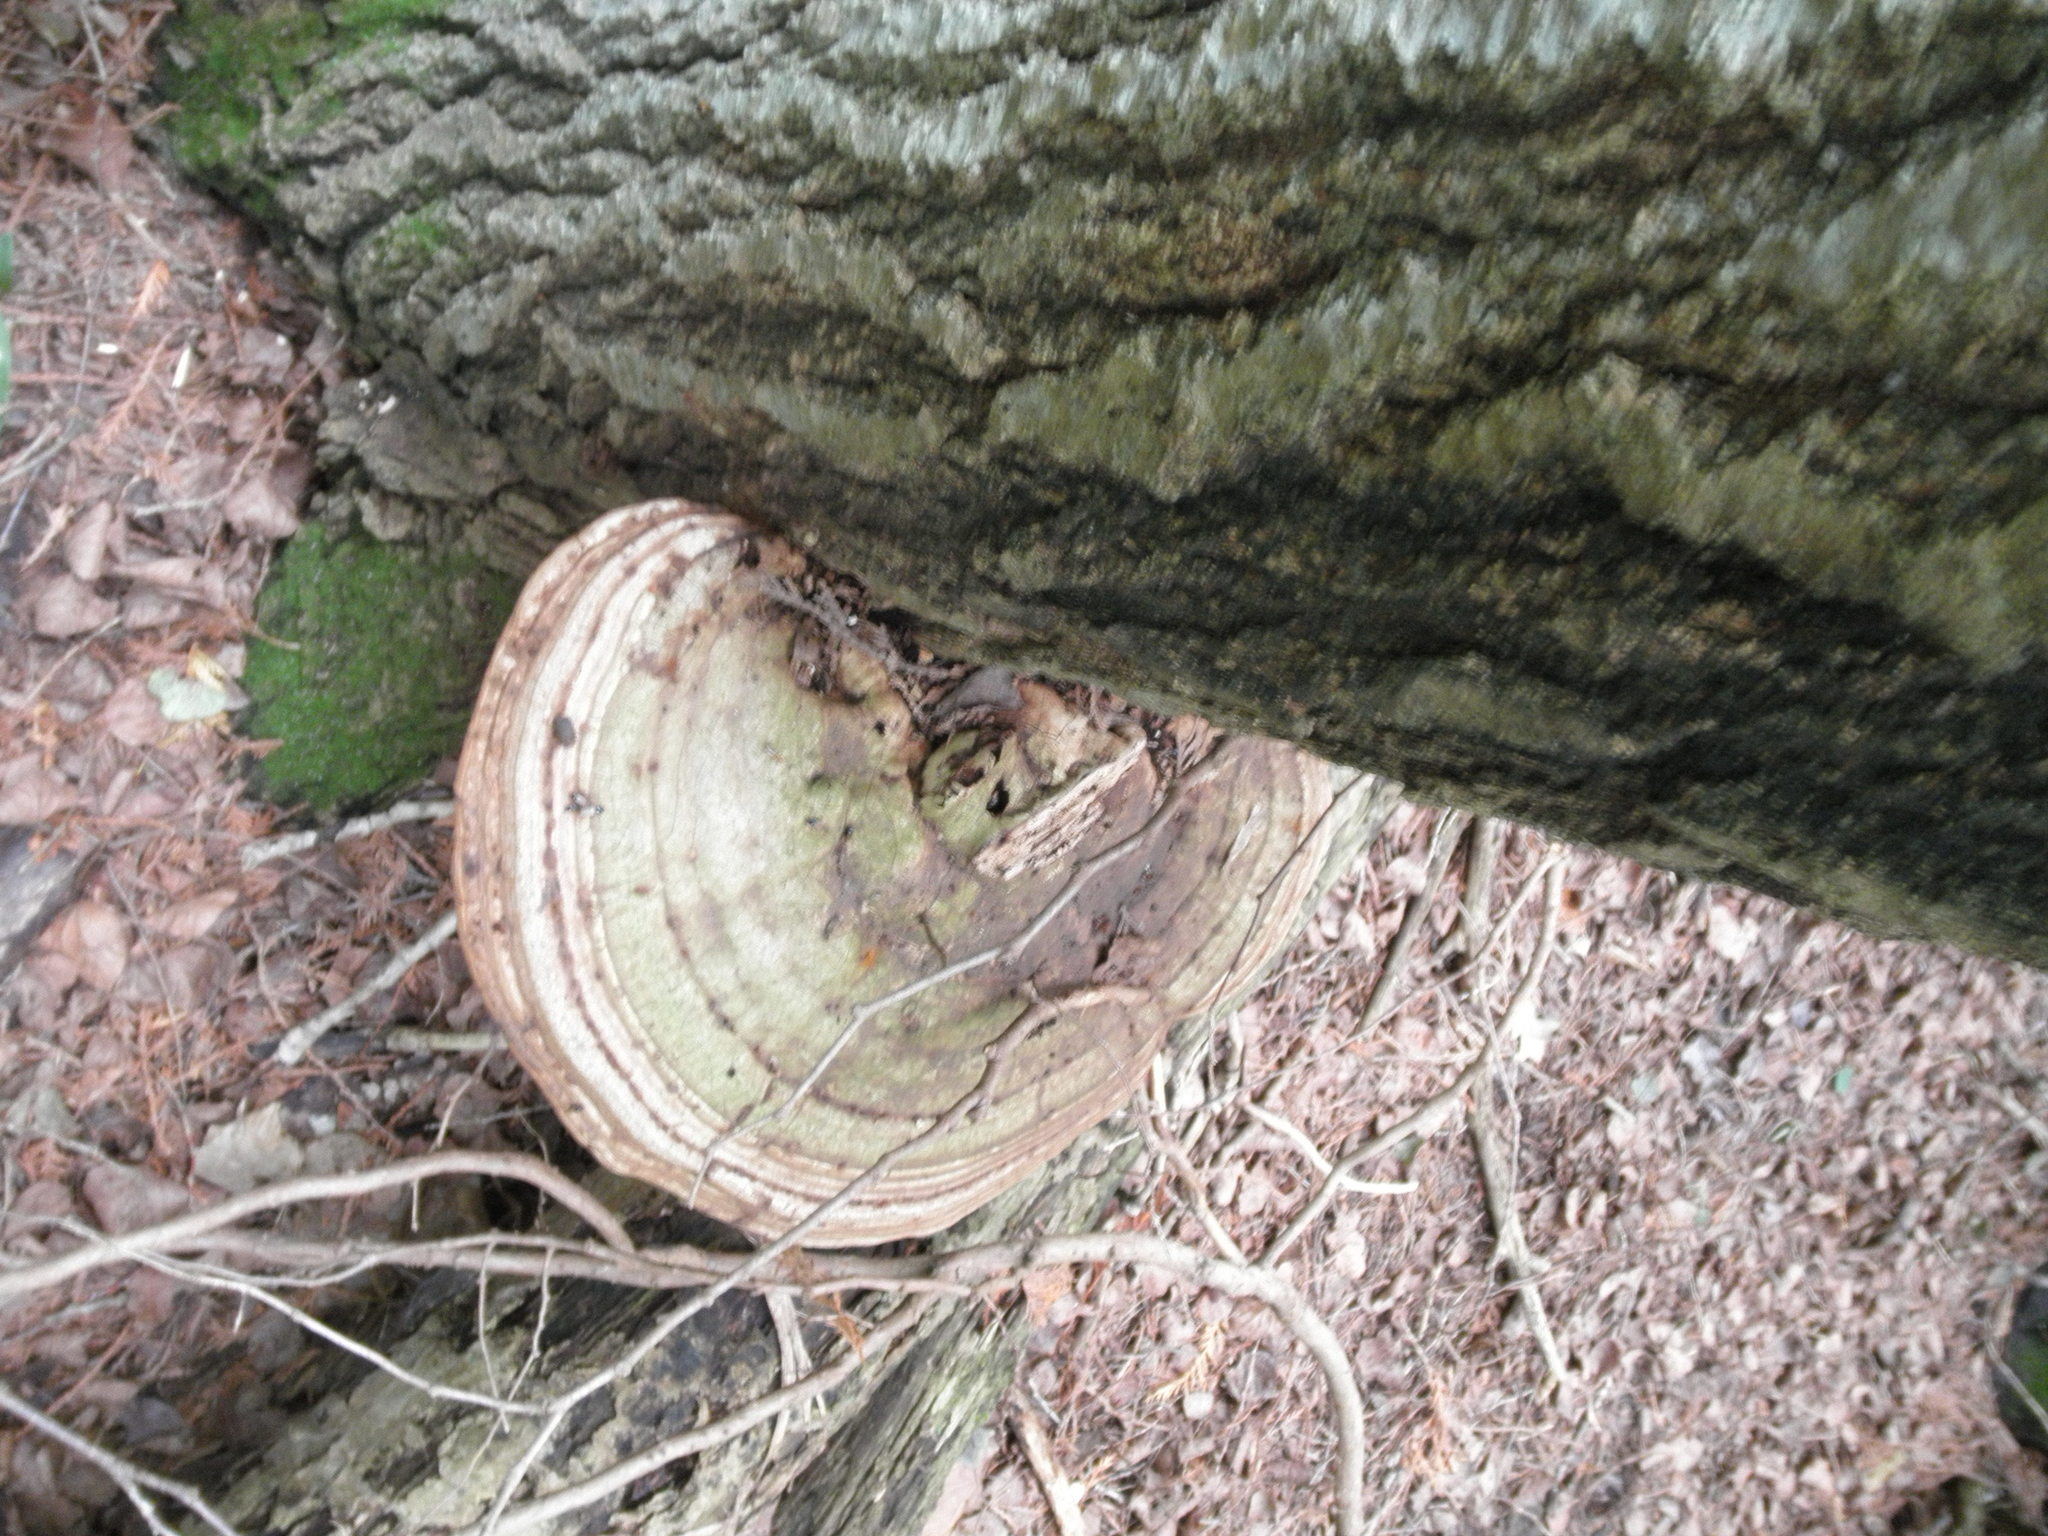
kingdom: Fungi
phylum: Basidiomycota
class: Agaricomycetes
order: Polyporales
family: Polyporaceae
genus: Ganoderma
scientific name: Ganoderma applanatum
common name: Artist's bracket
